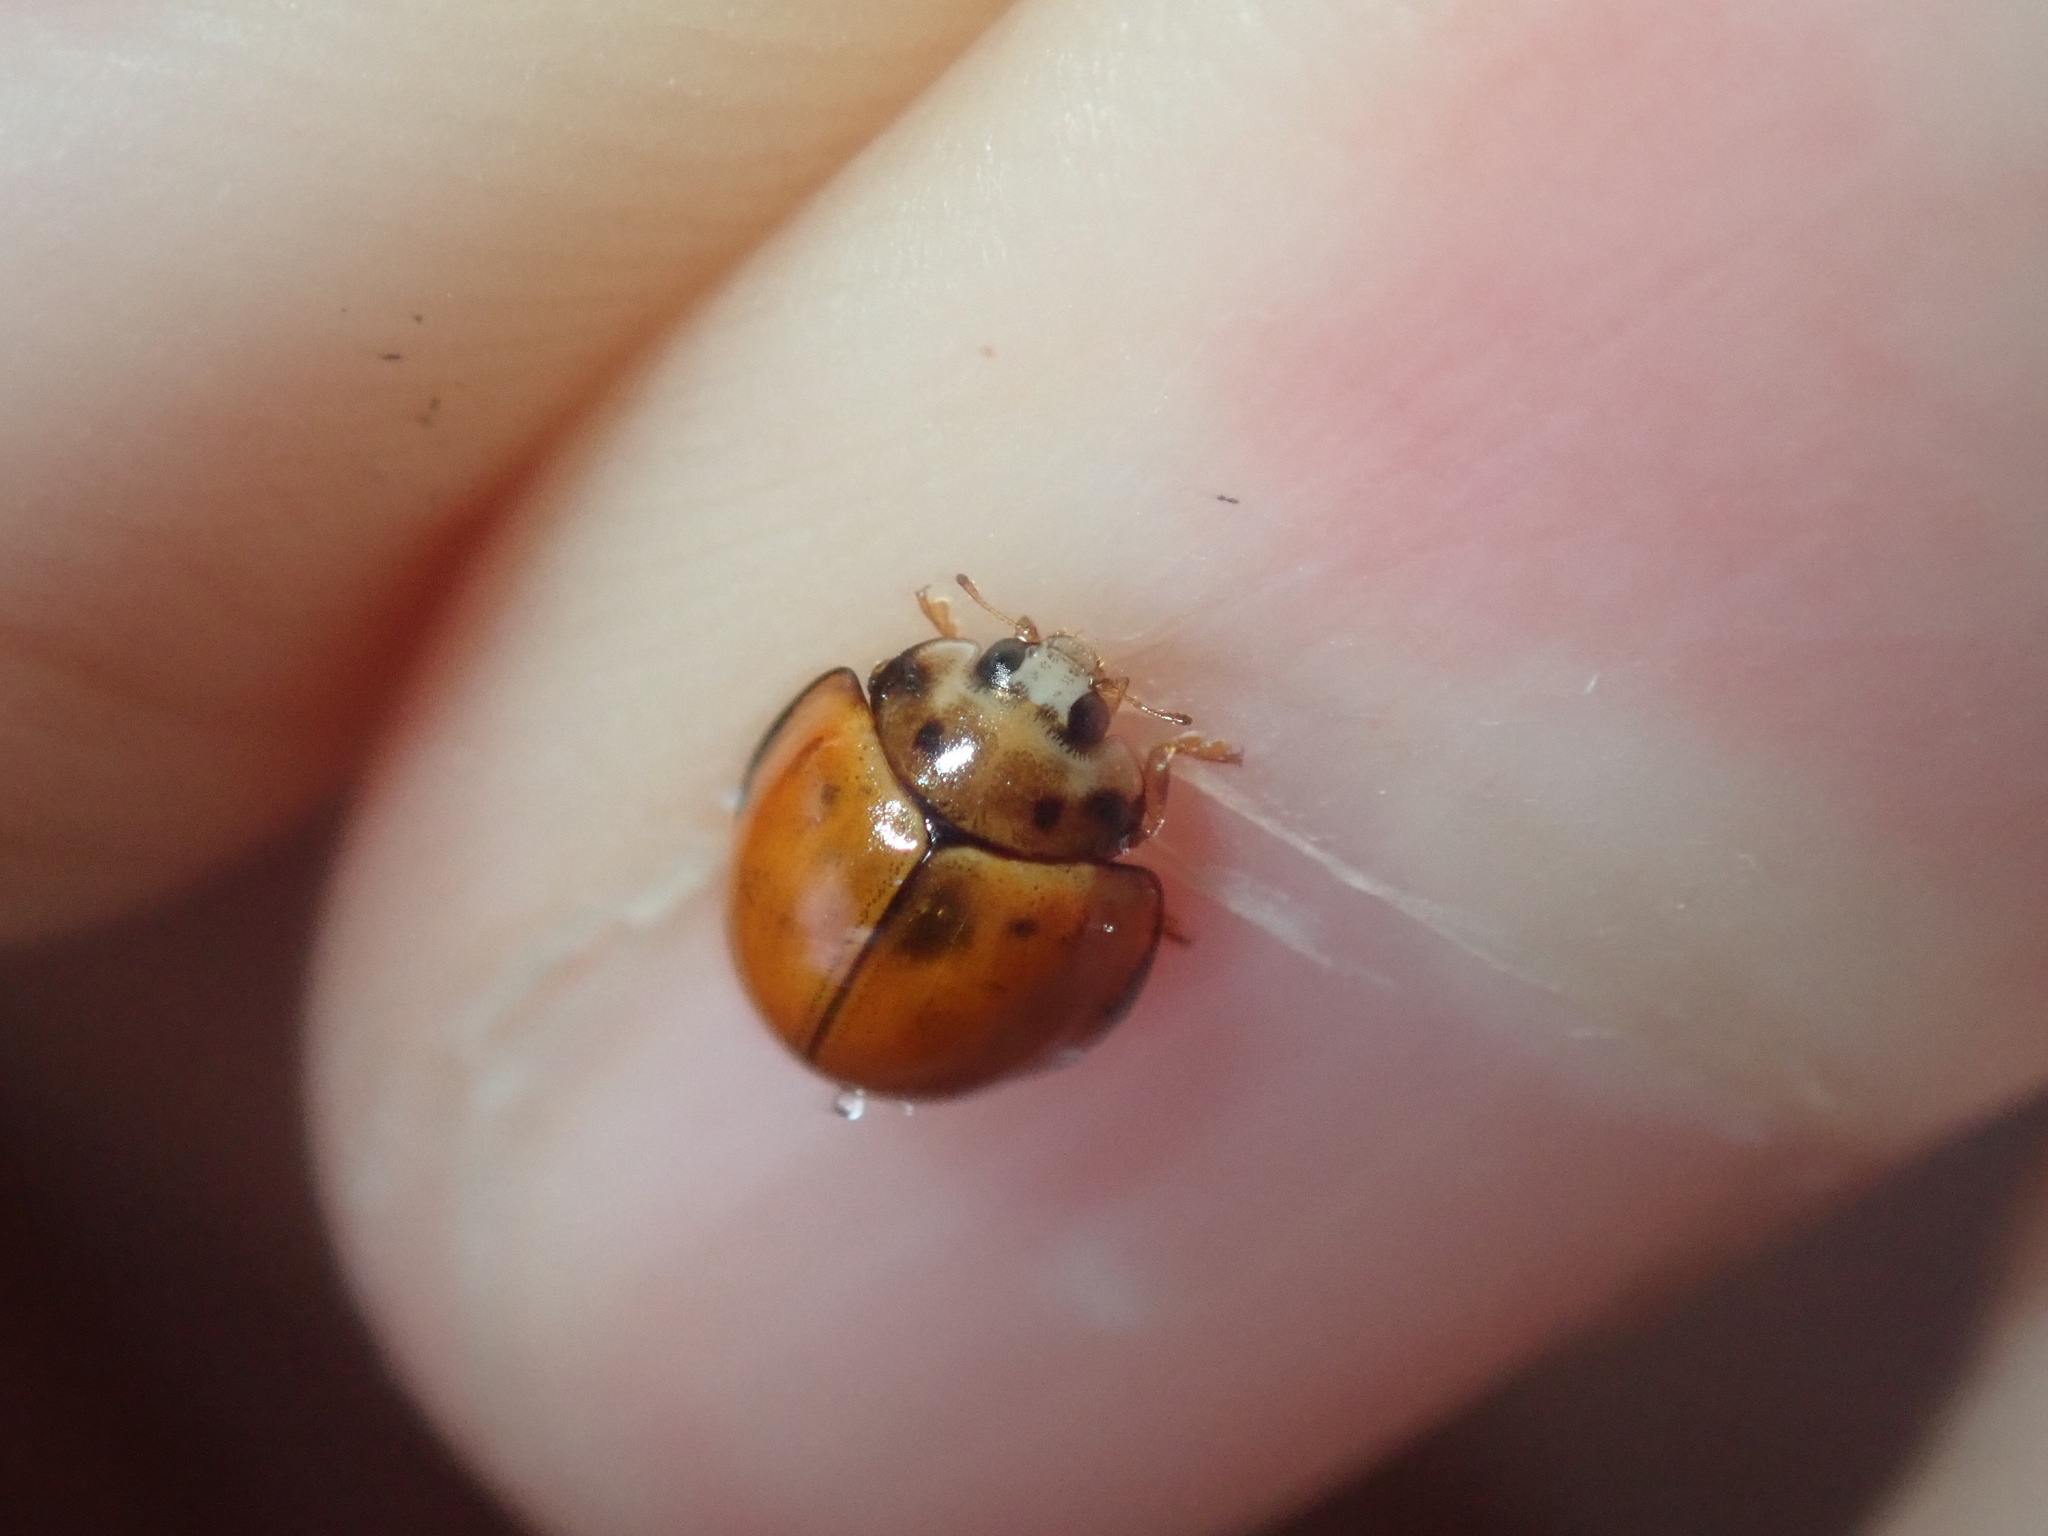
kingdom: Animalia
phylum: Arthropoda
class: Insecta
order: Coleoptera
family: Coccinellidae
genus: Coelophora
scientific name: Coelophora inaequalis
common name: Common australian lady beetle
